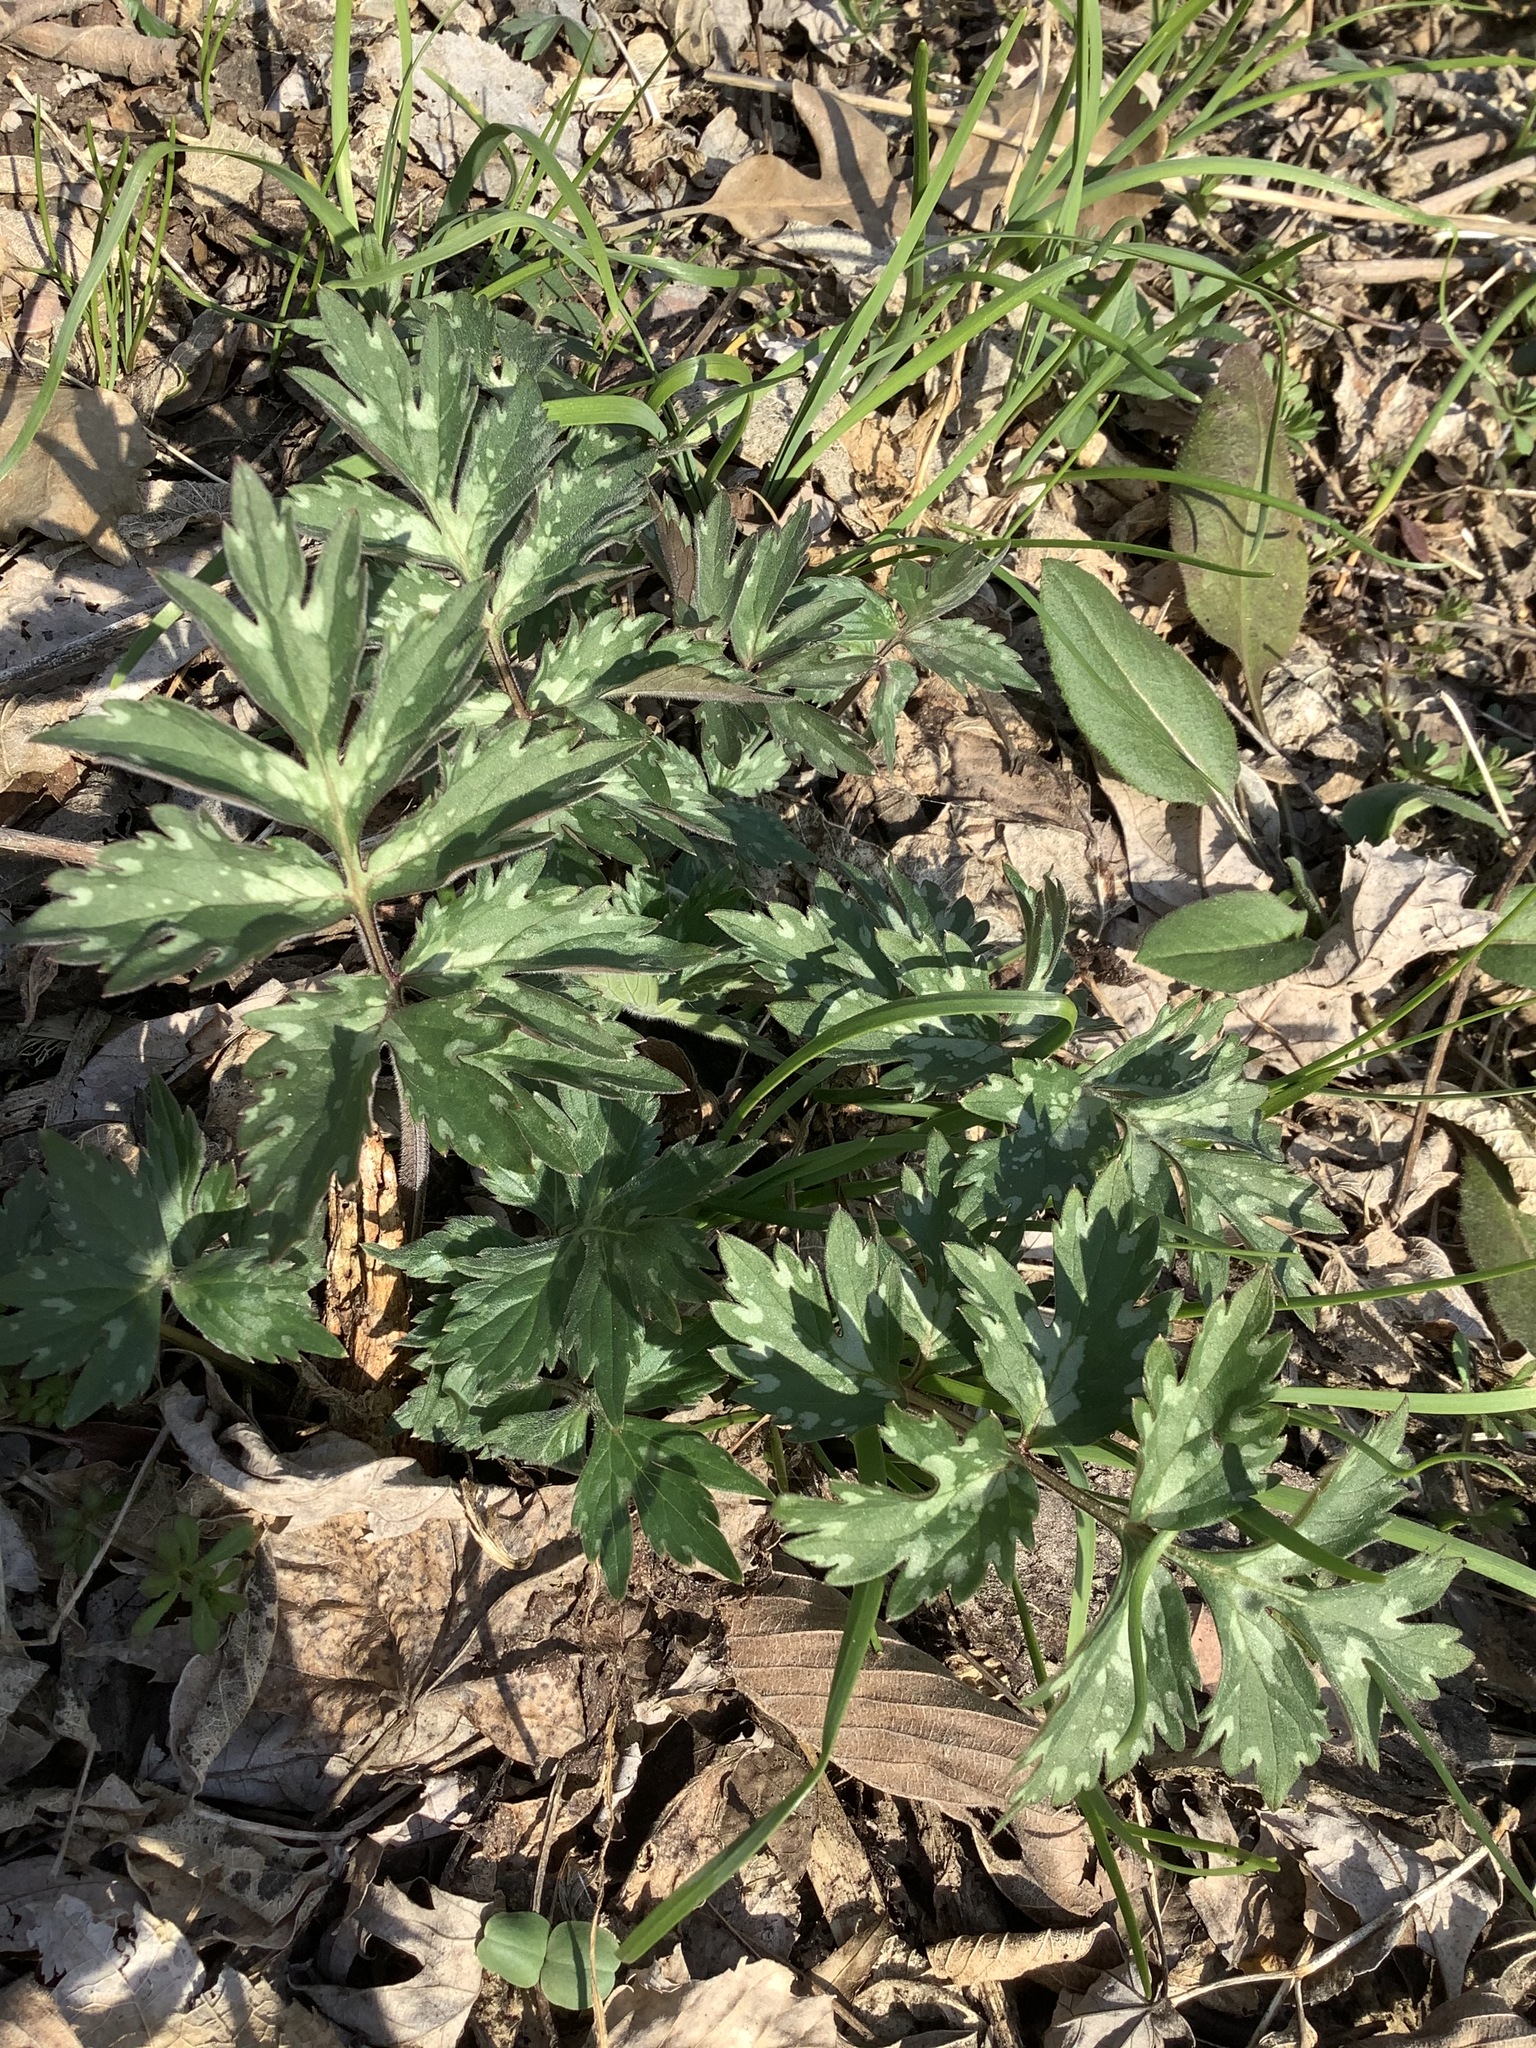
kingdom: Plantae
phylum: Tracheophyta
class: Magnoliopsida
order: Boraginales
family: Hydrophyllaceae
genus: Hydrophyllum
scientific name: Hydrophyllum virginianum
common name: Virginia waterleaf
